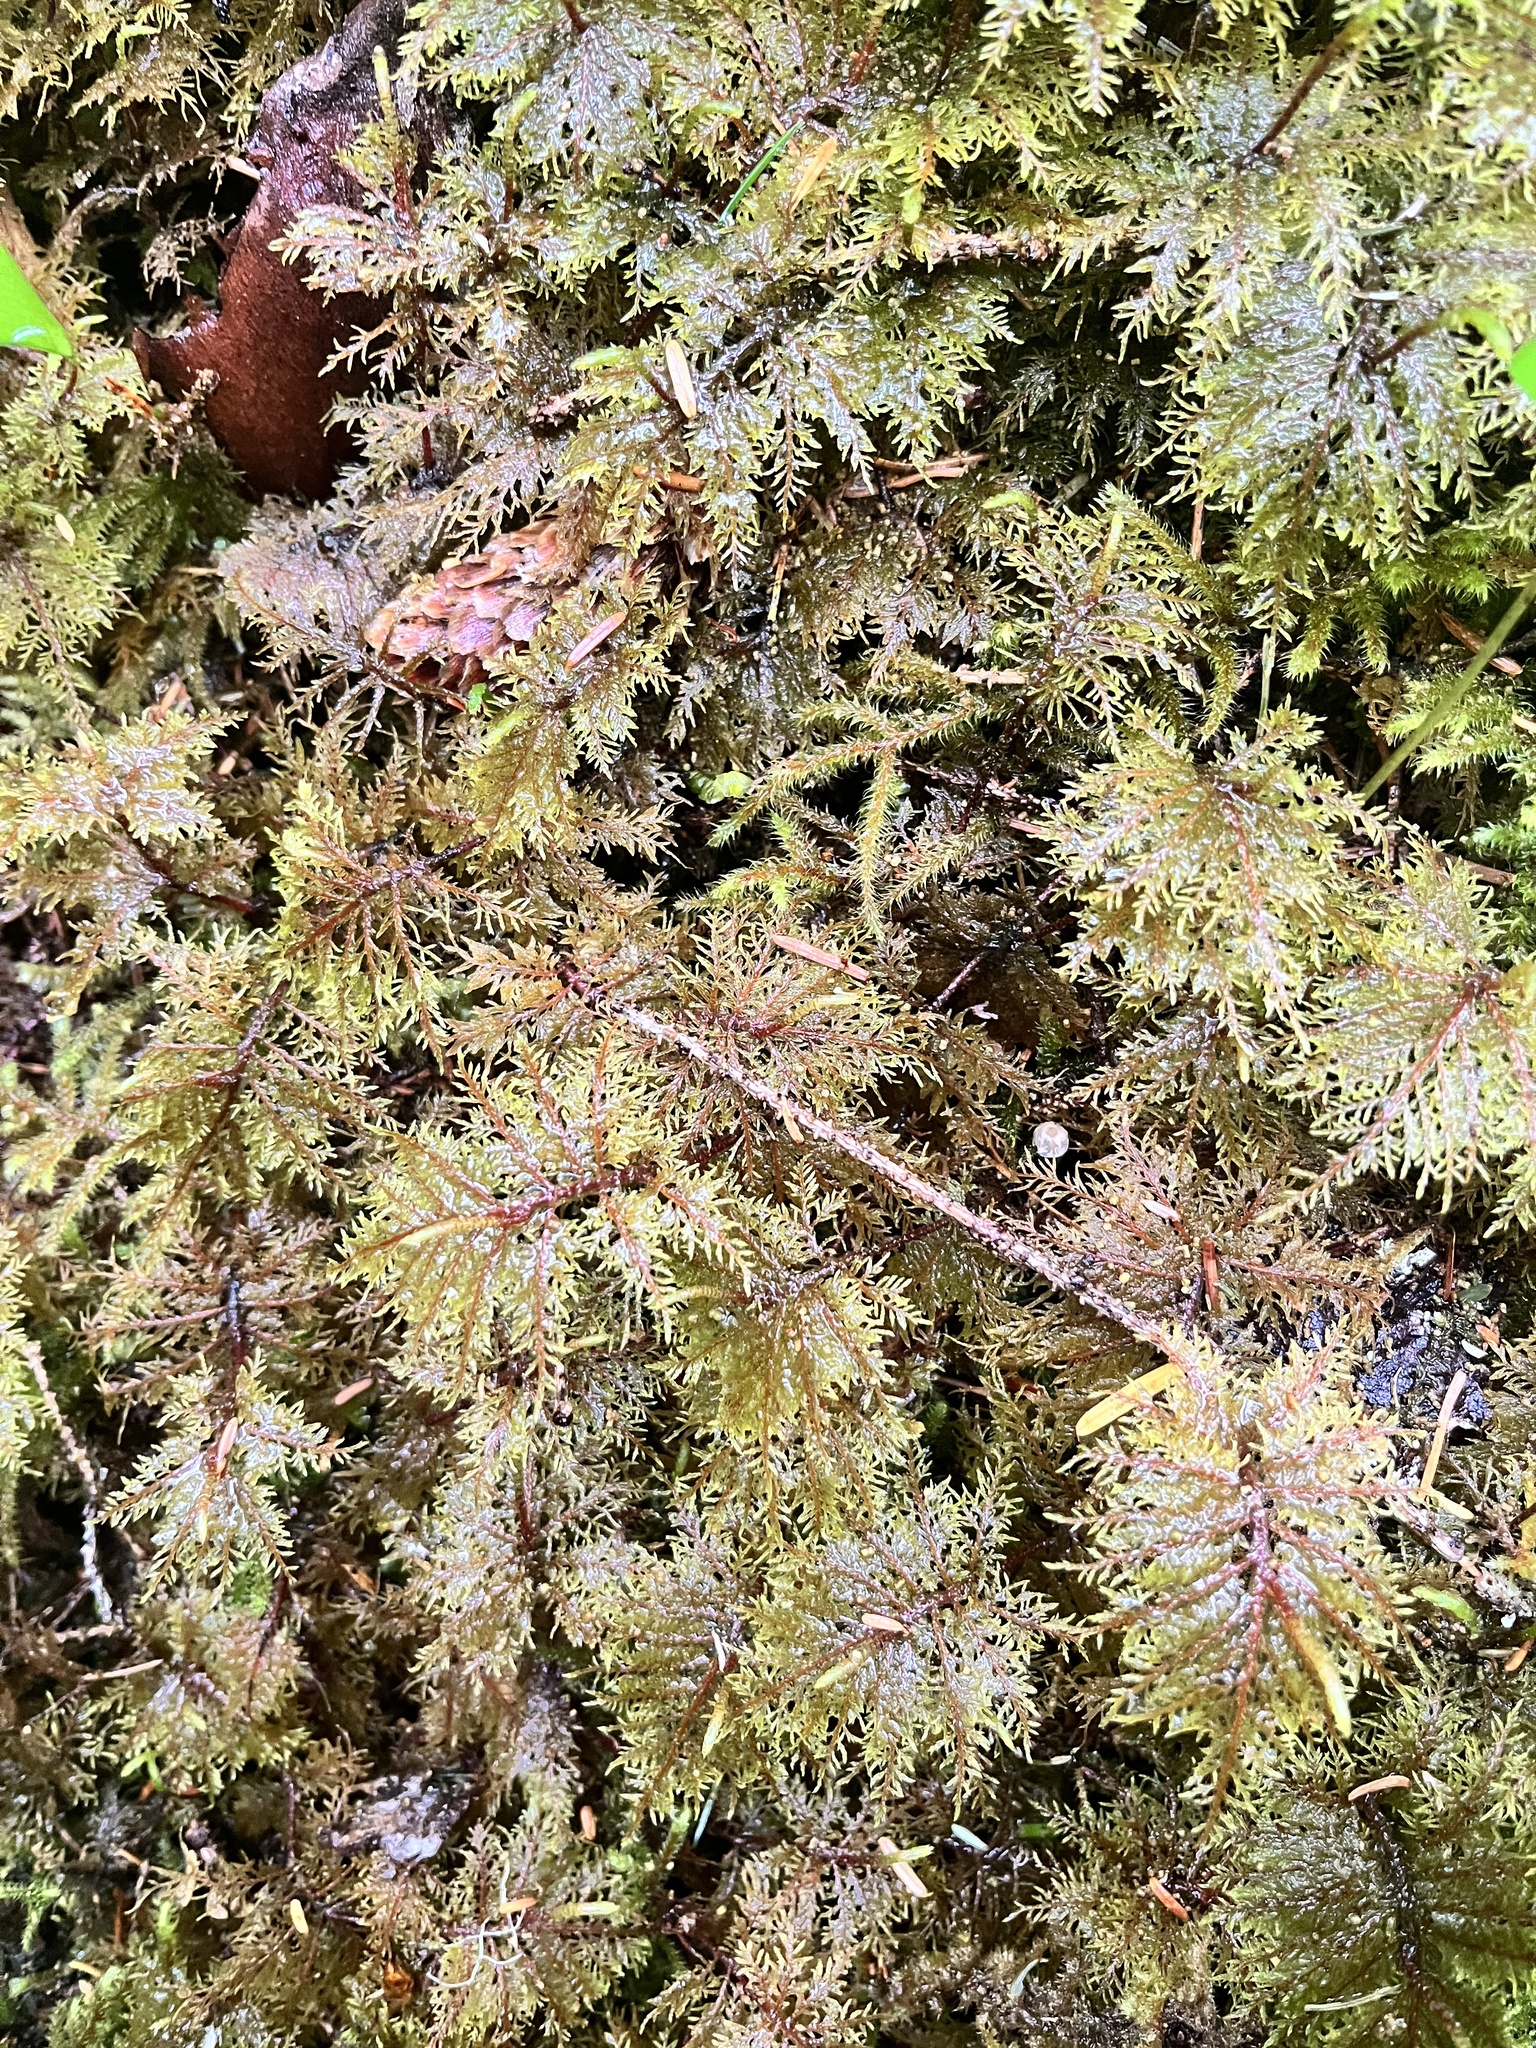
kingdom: Plantae
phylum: Bryophyta
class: Bryopsida
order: Hypnales
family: Hylocomiaceae
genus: Hylocomium
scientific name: Hylocomium splendens
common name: Stairstep moss
